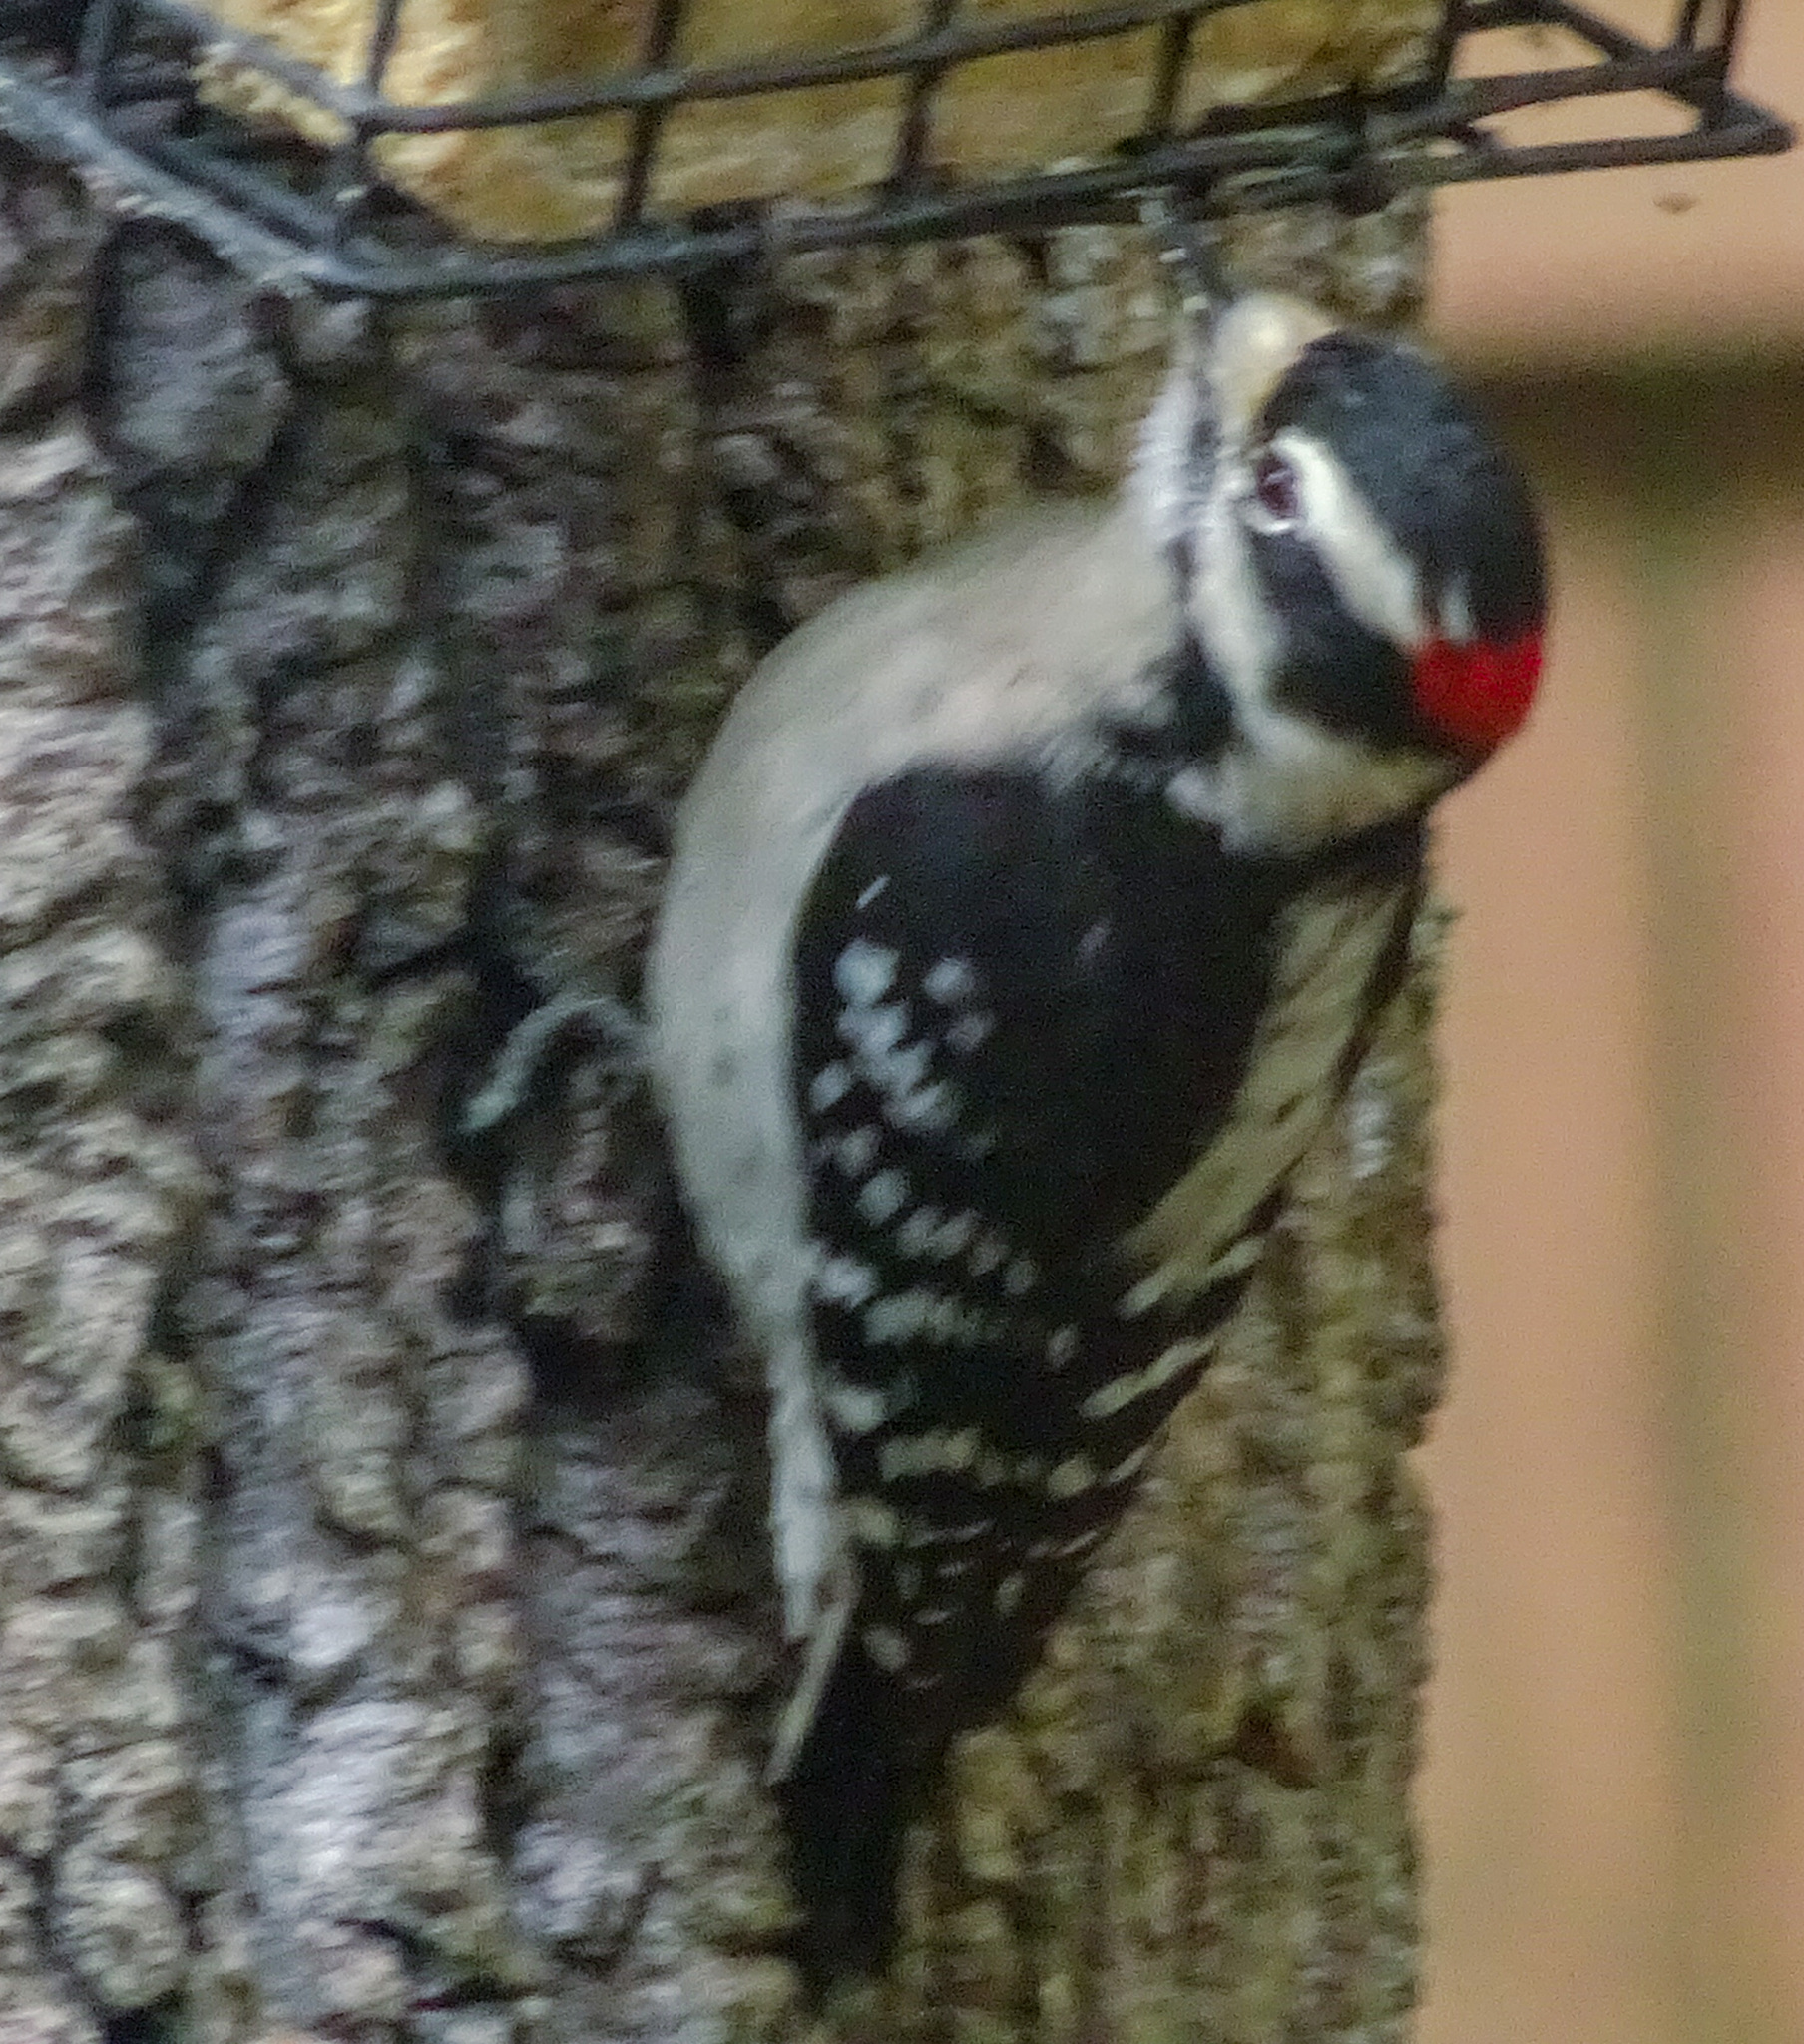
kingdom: Animalia
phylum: Chordata
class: Aves
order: Piciformes
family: Picidae
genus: Dryobates
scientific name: Dryobates pubescens
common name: Downy woodpecker
